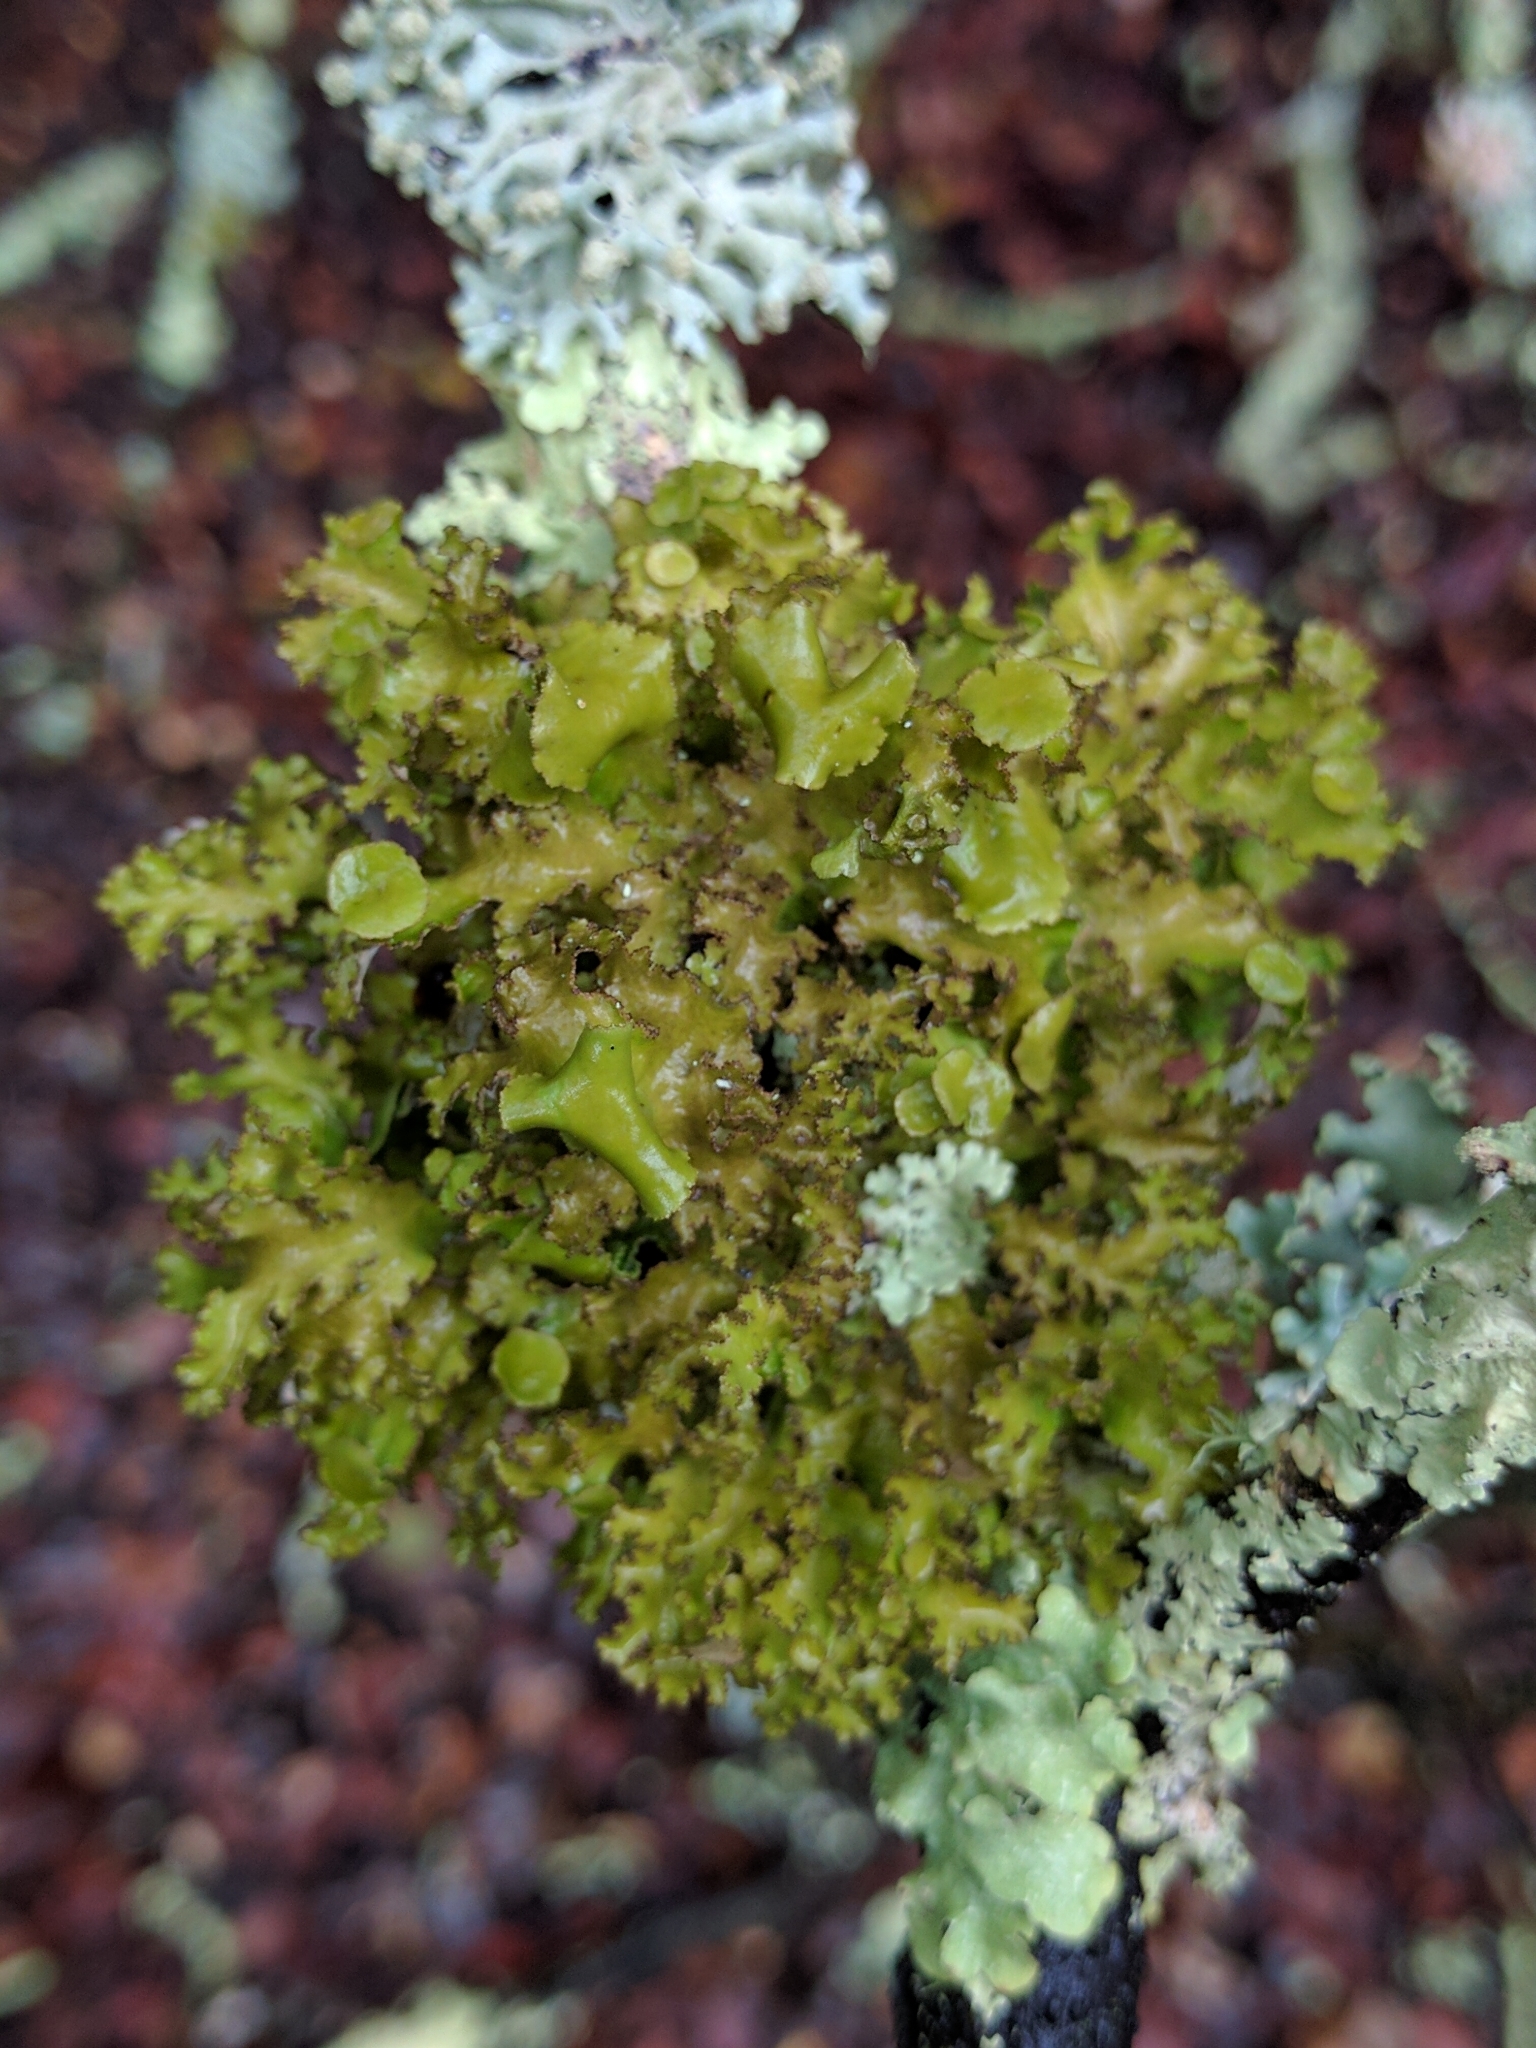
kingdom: Fungi
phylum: Ascomycota
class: Lecanoromycetes
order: Lecanorales
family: Parmeliaceae
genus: Nephromopsis
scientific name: Nephromopsis orbata
